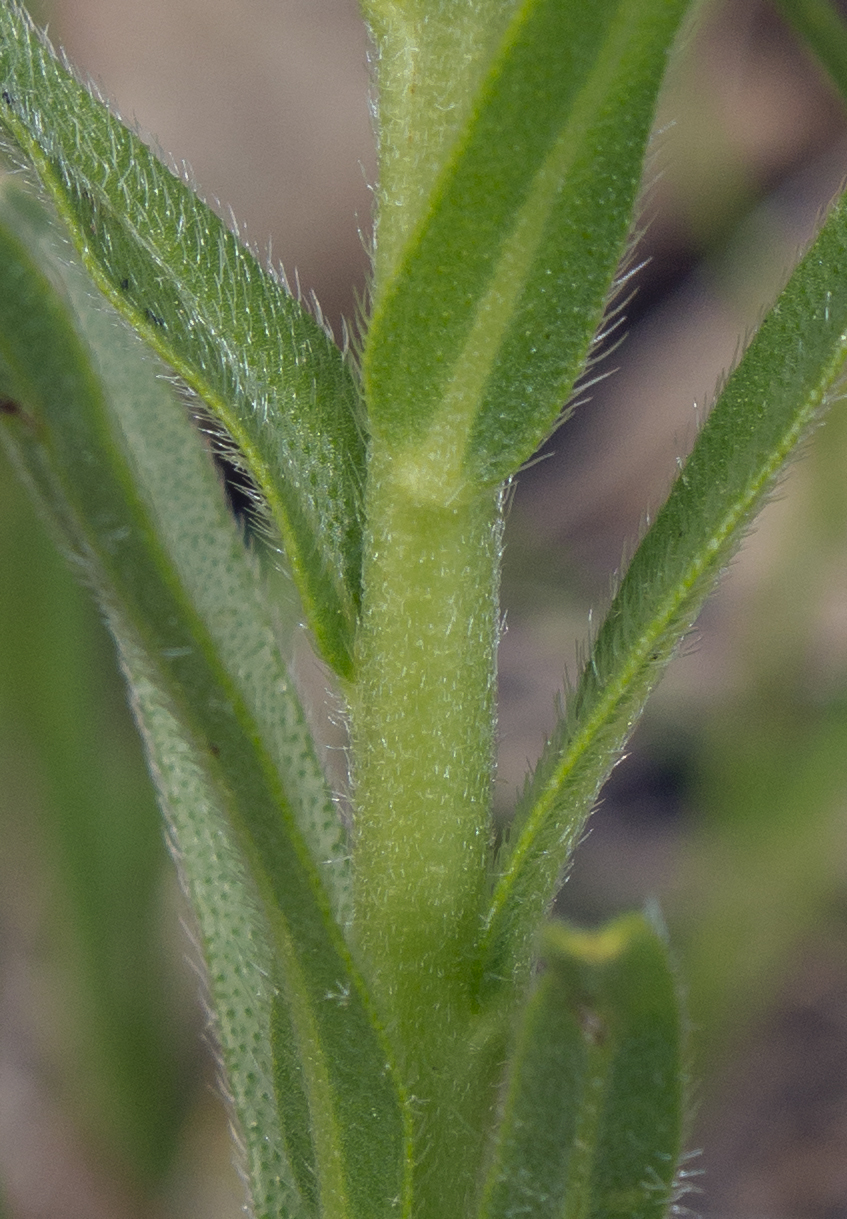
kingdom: Plantae
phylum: Tracheophyta
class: Magnoliopsida
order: Boraginales
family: Boraginaceae
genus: Lithospermum
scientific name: Lithospermum caroliniense
